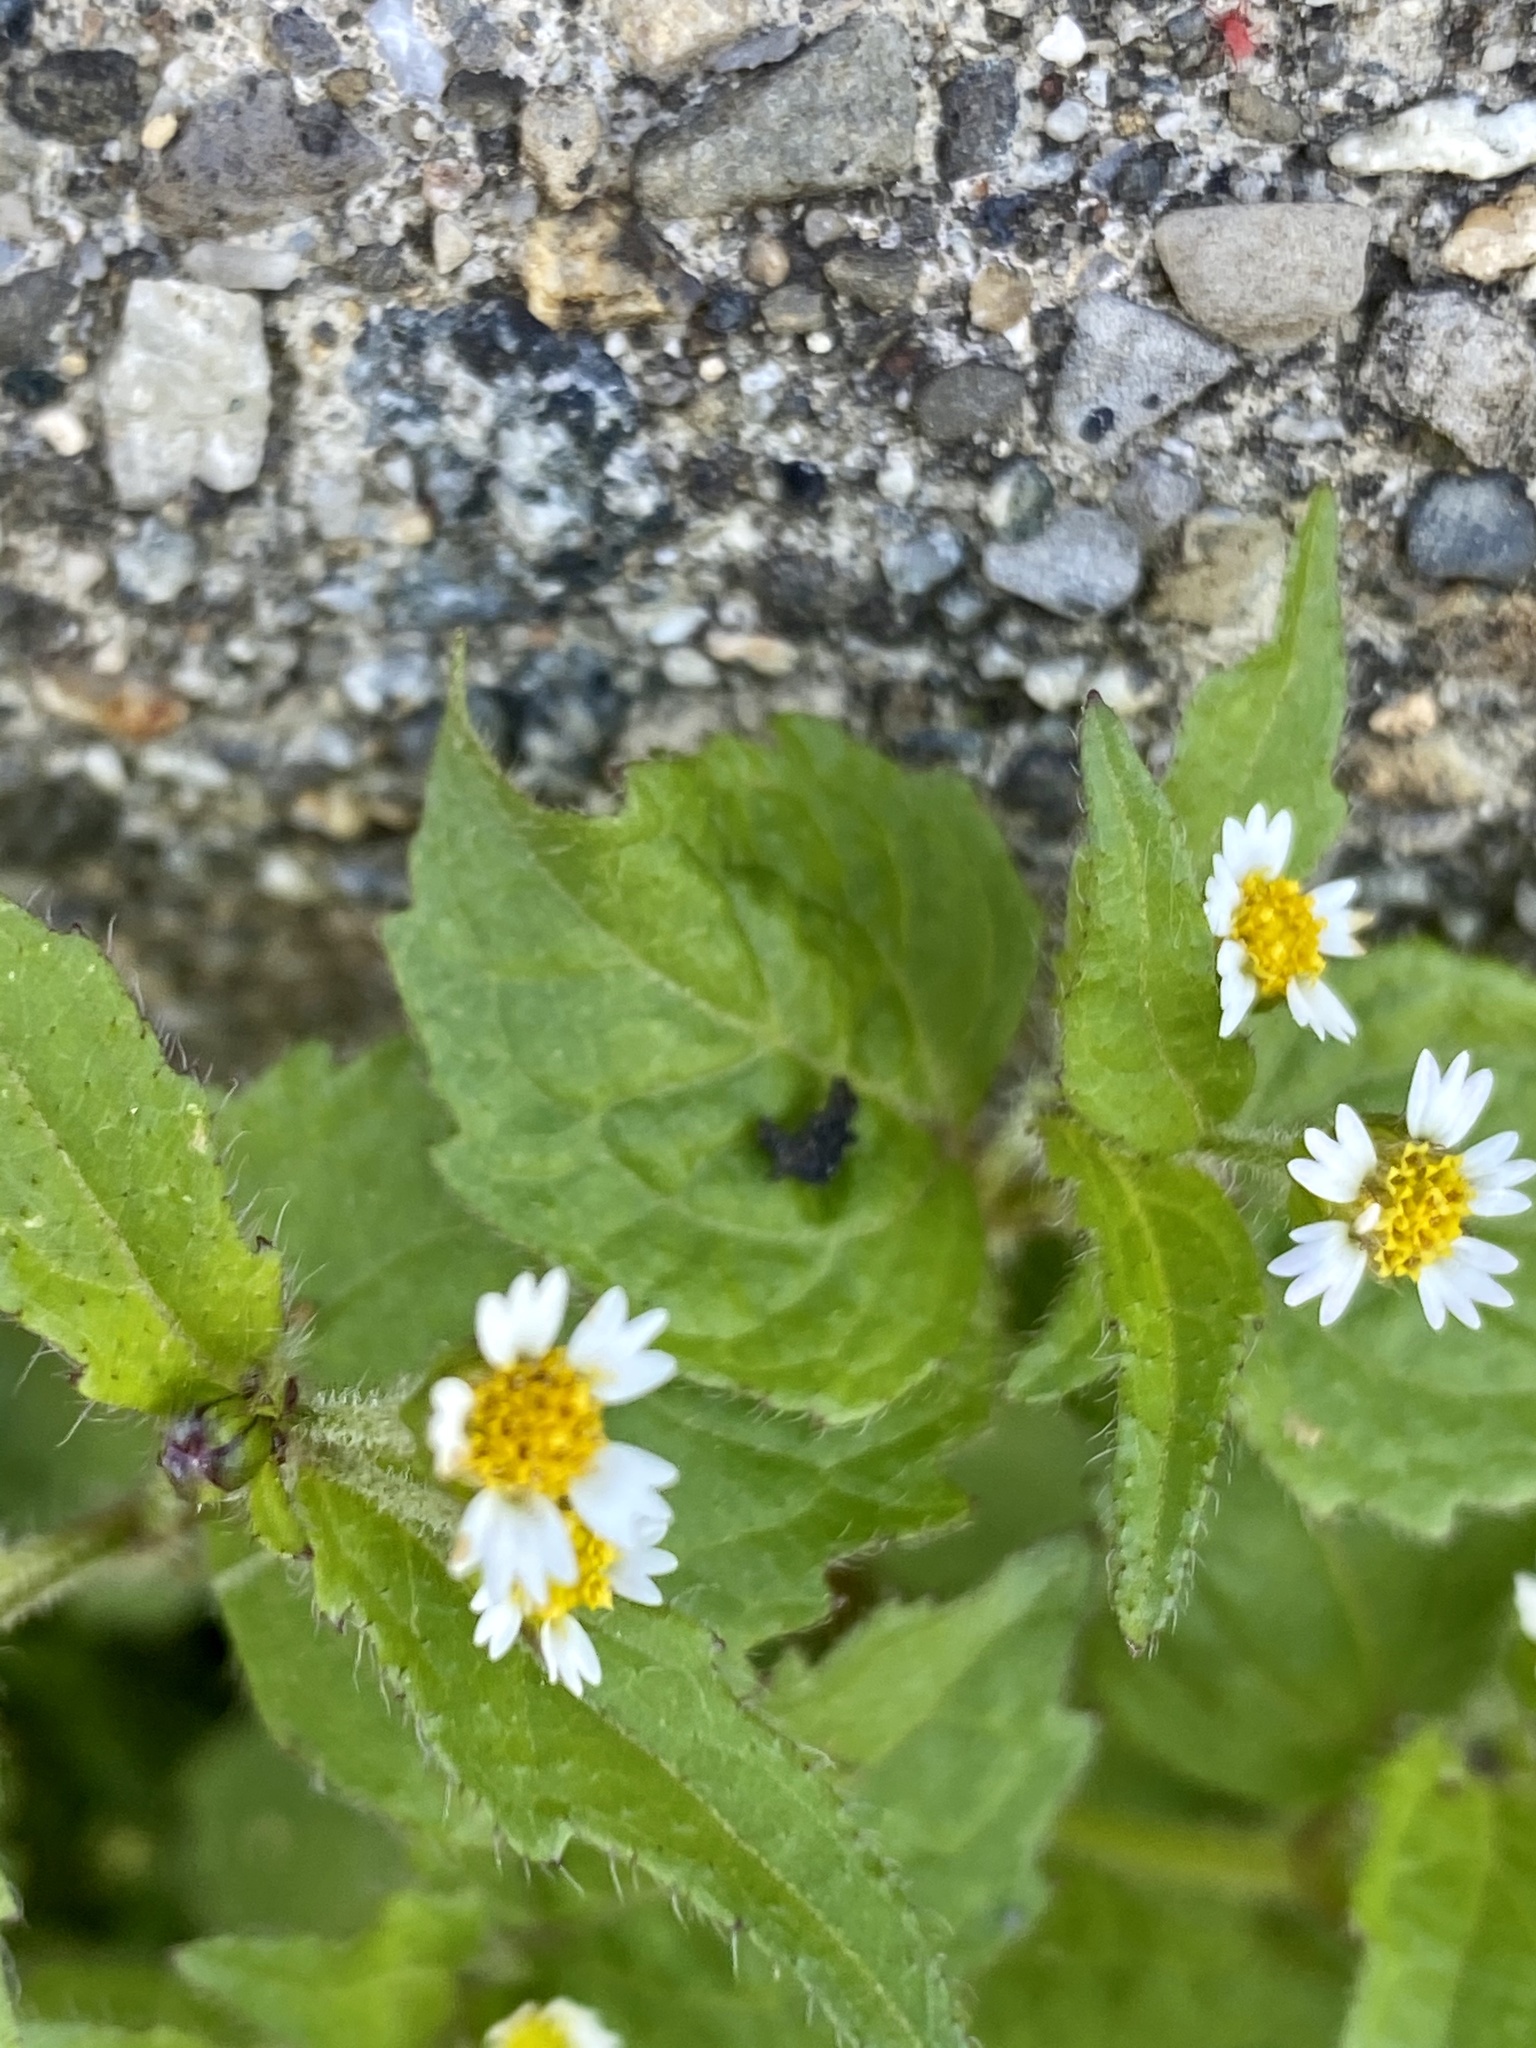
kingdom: Plantae
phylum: Tracheophyta
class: Magnoliopsida
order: Asterales
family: Asteraceae
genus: Galinsoga
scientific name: Galinsoga quadriradiata
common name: Shaggy soldier
